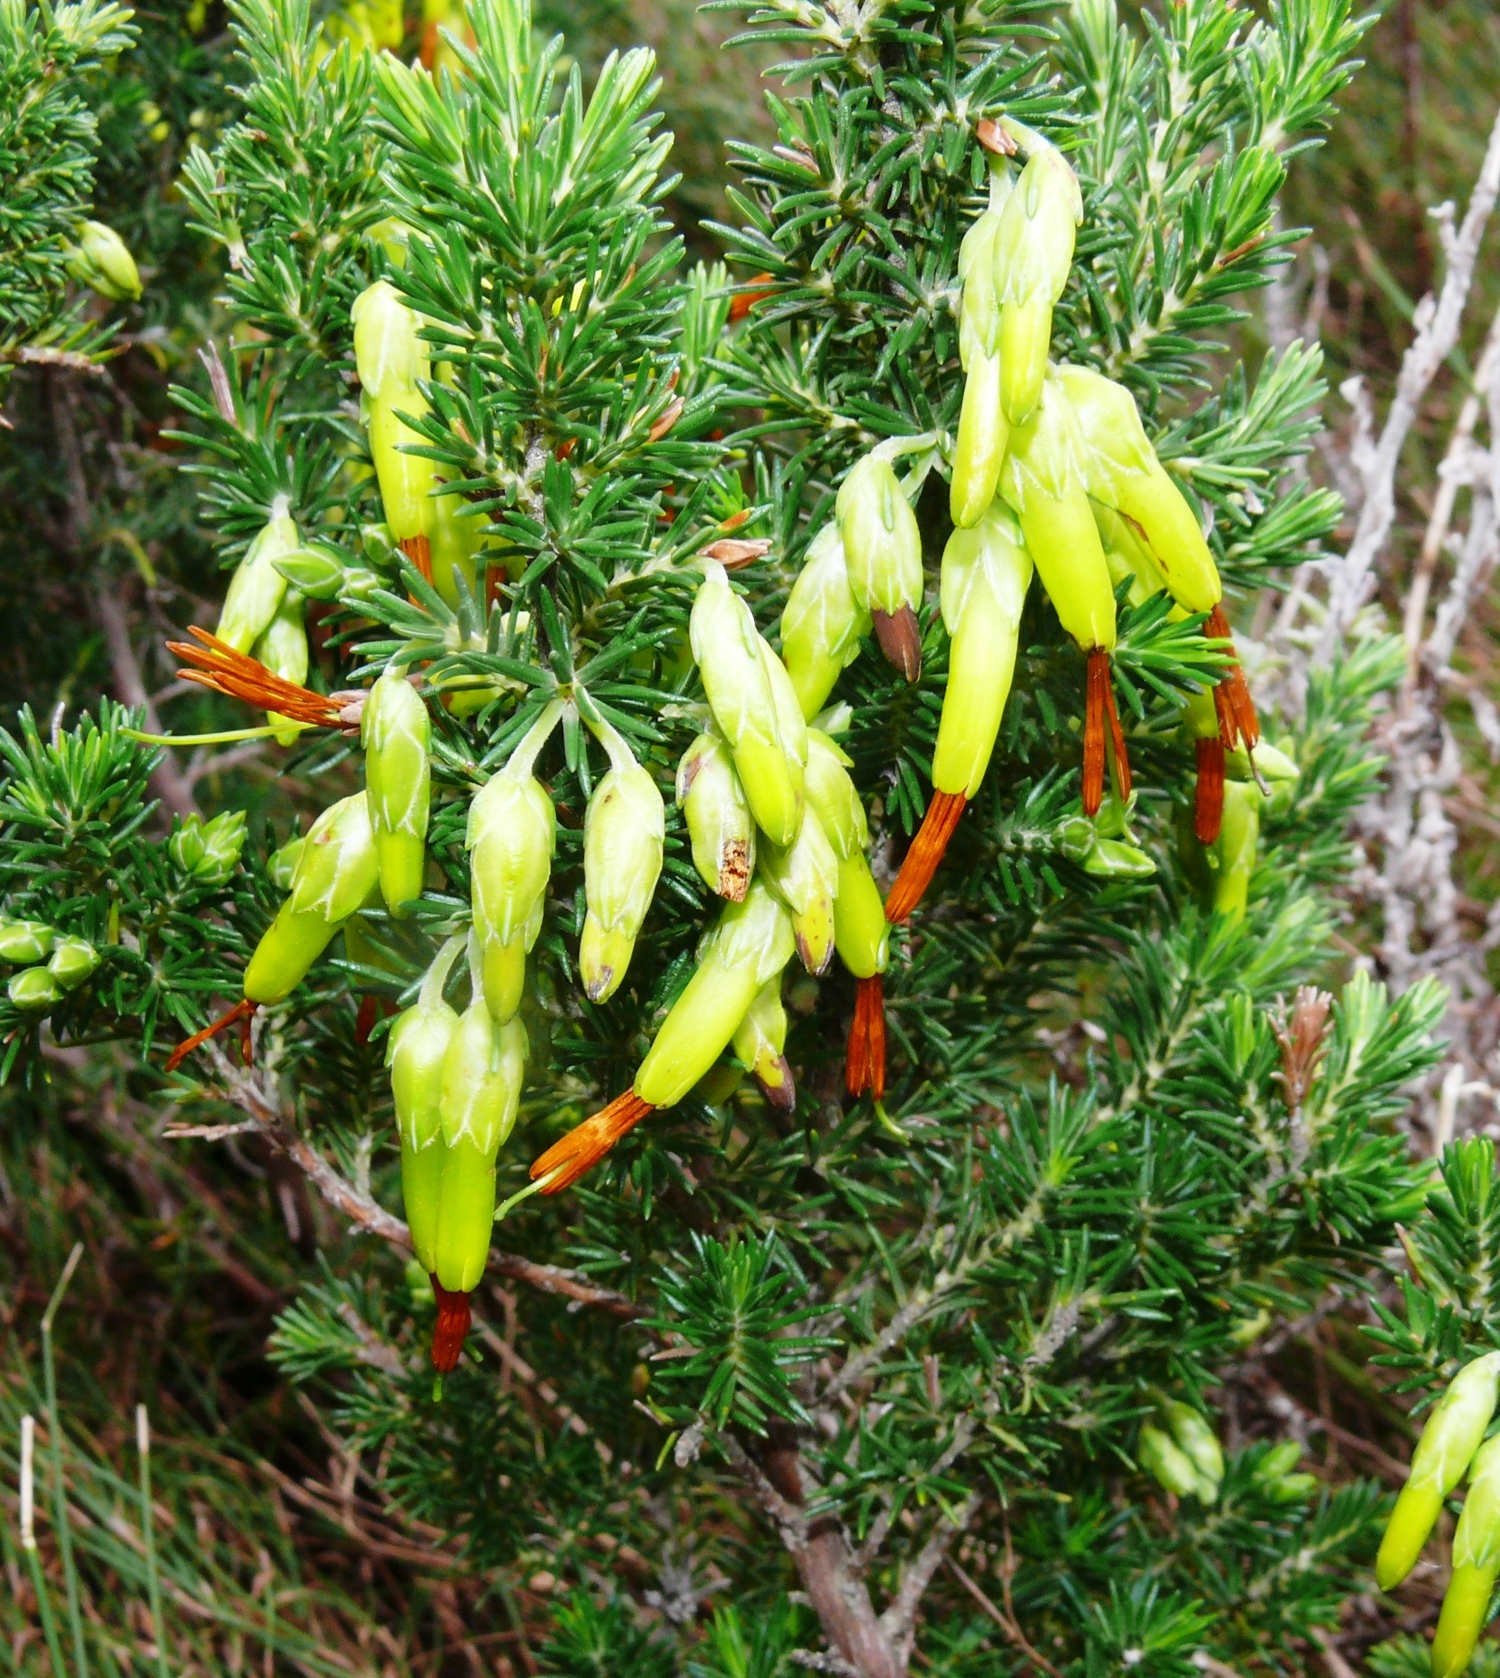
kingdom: Plantae
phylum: Tracheophyta
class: Magnoliopsida
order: Ericales
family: Ericaceae
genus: Erica
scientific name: Erica coccinea
